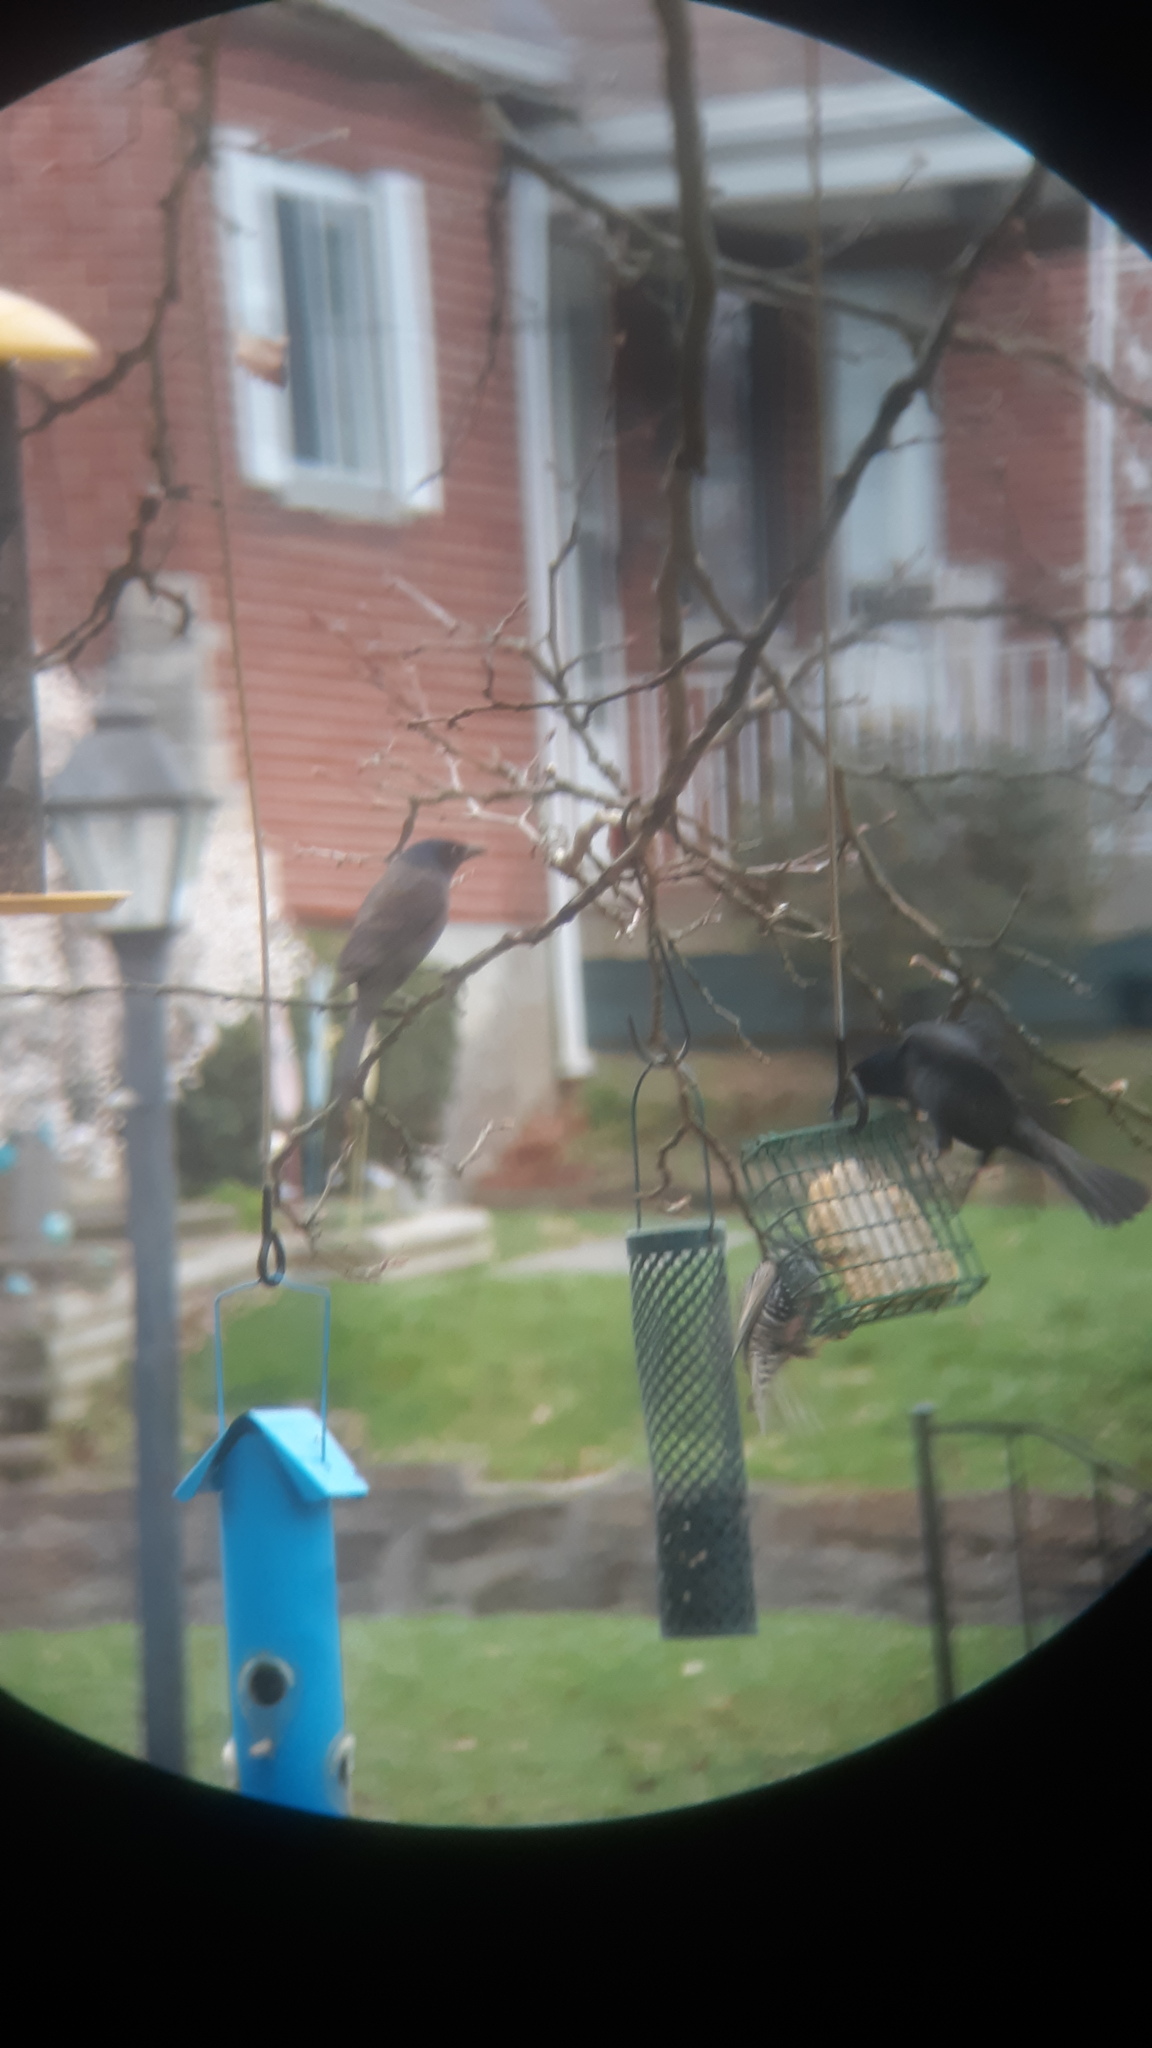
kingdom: Animalia
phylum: Chordata
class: Aves
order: Passeriformes
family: Icteridae
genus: Quiscalus
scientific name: Quiscalus quiscula
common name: Common grackle
